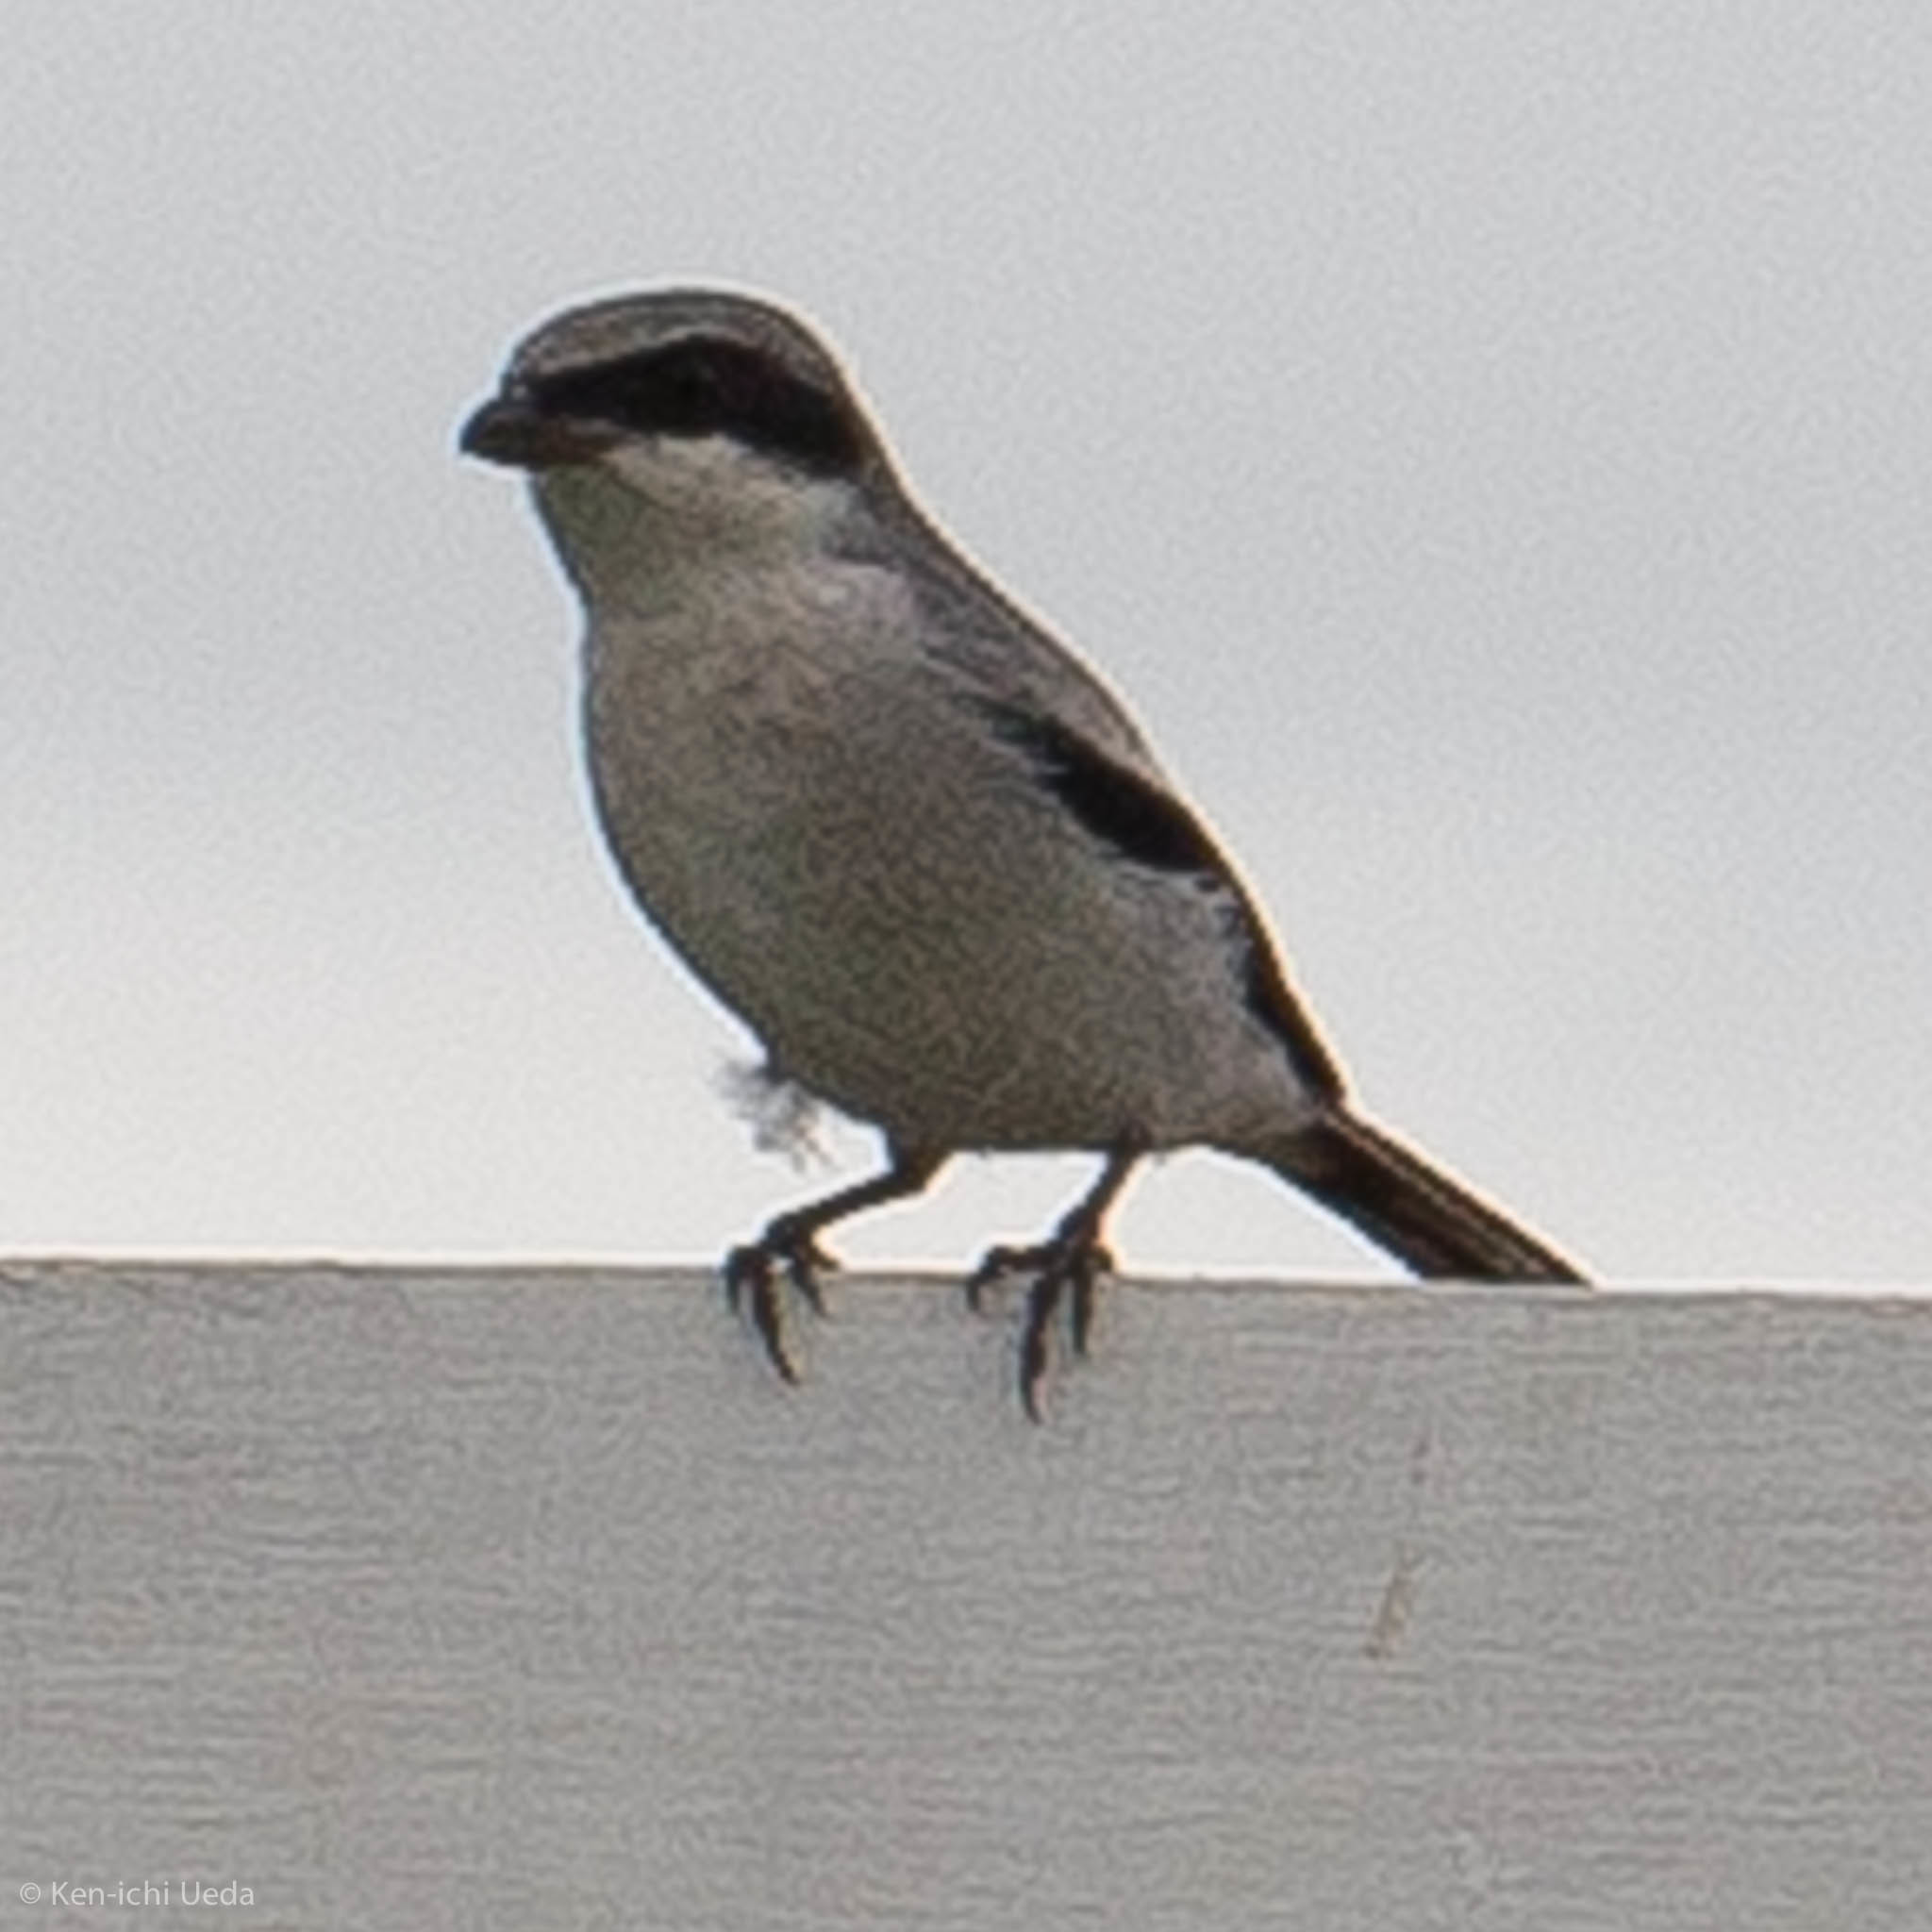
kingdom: Animalia
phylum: Chordata
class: Aves
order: Passeriformes
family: Laniidae
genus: Lanius
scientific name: Lanius ludovicianus
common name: Loggerhead shrike
